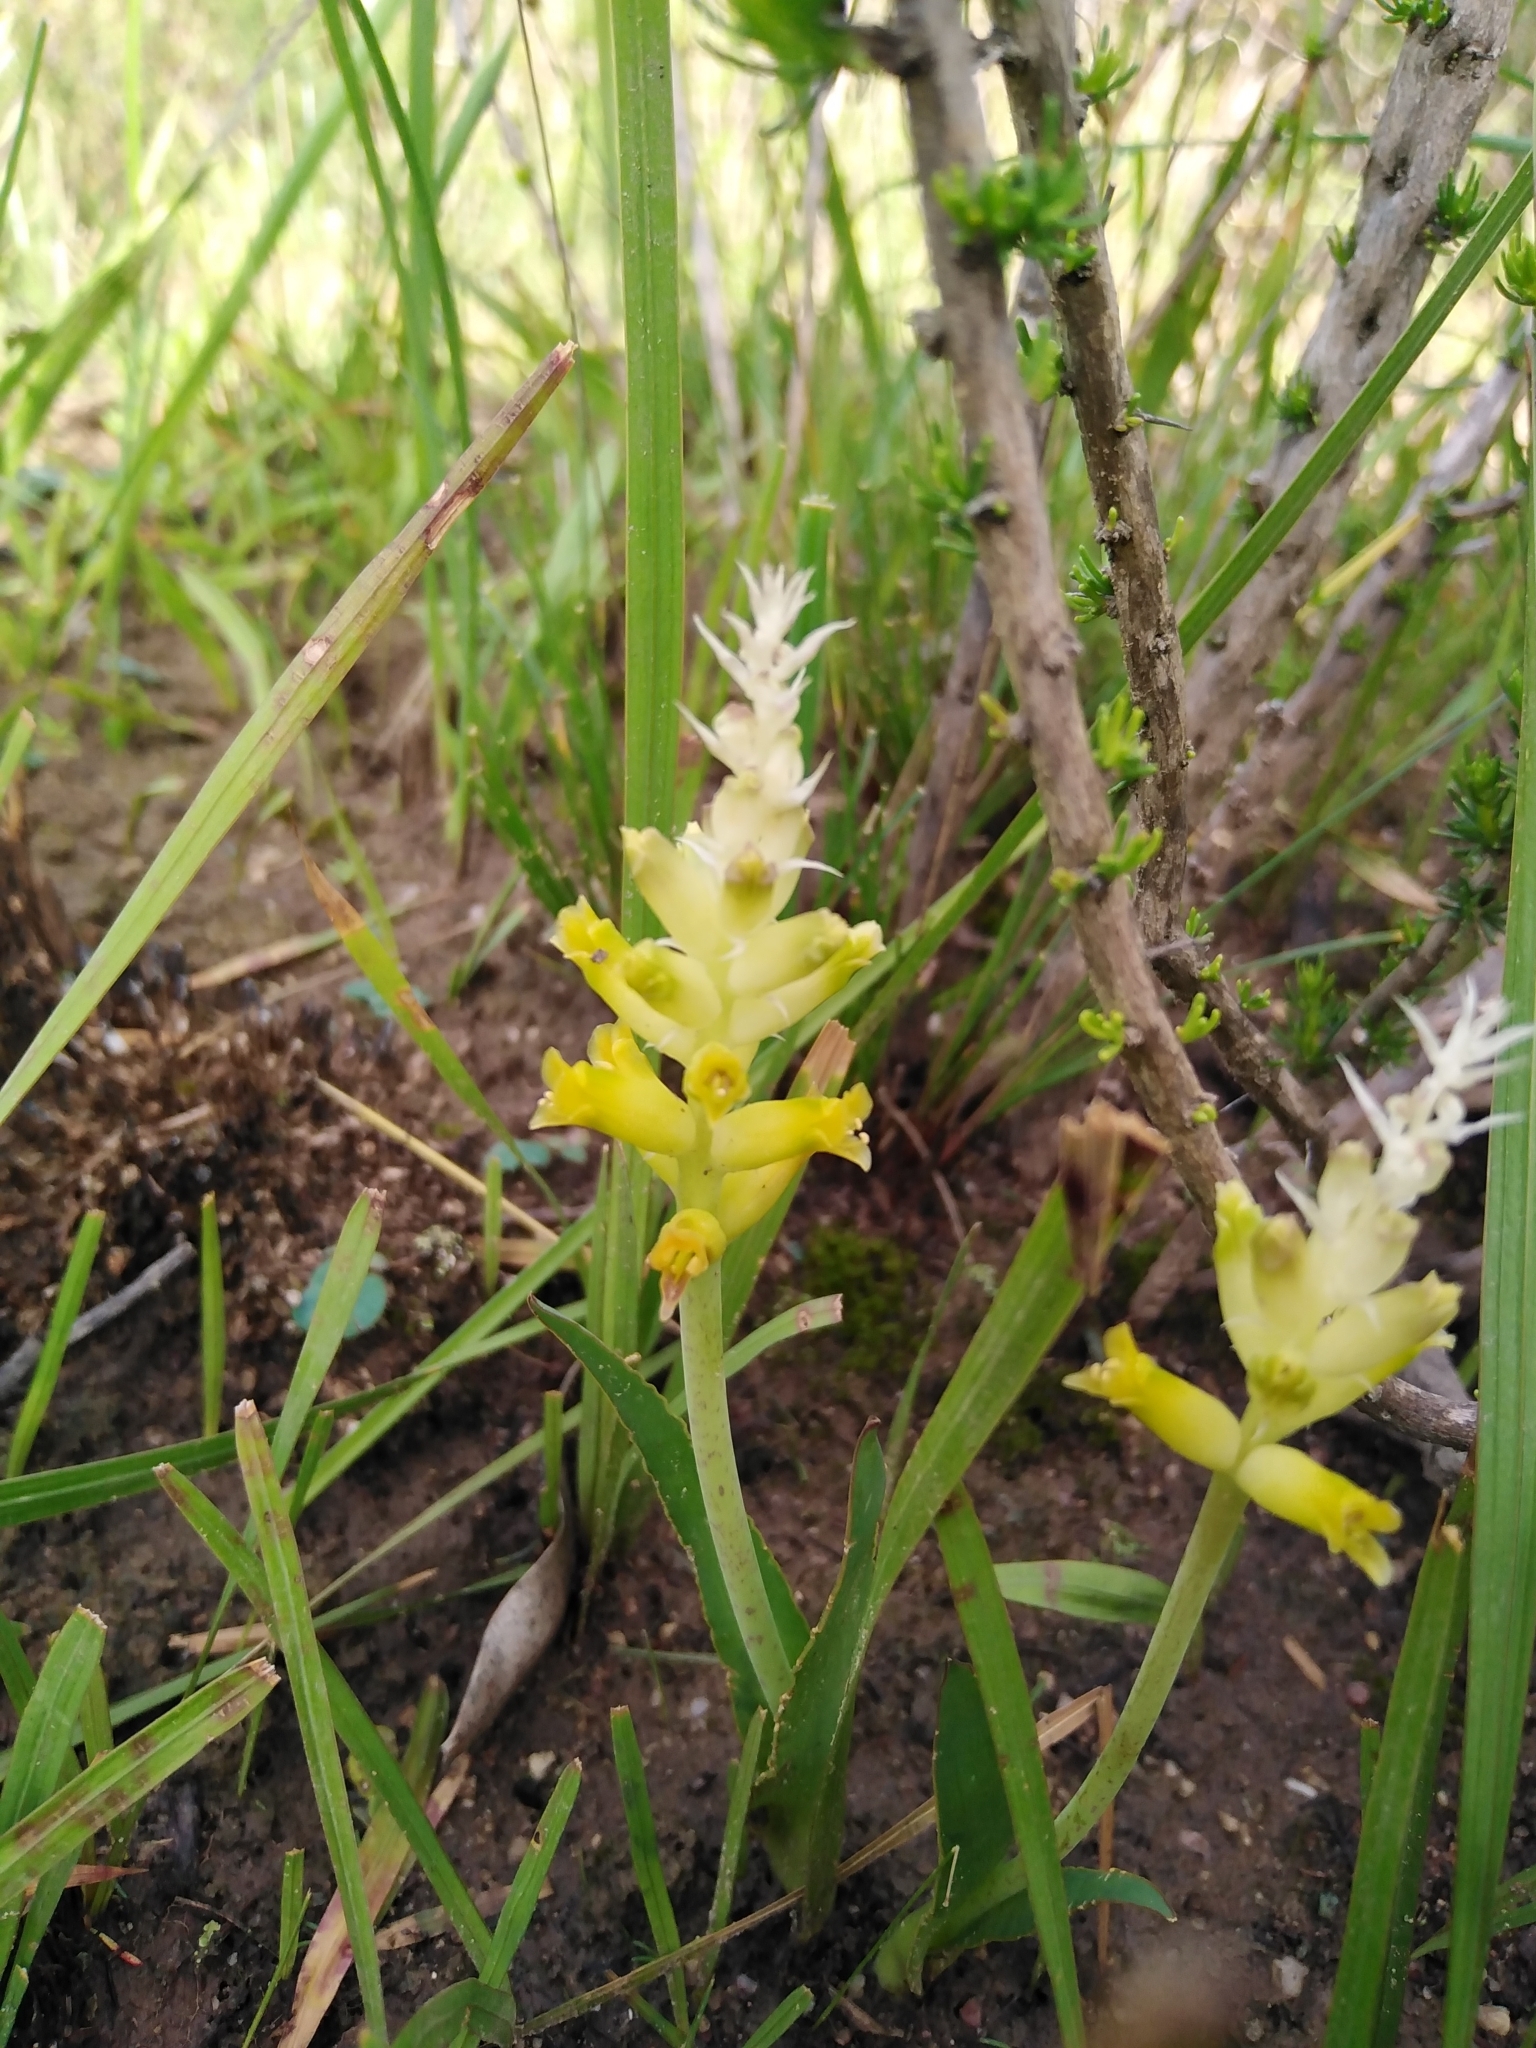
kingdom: Plantae
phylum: Tracheophyta
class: Liliopsida
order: Asparagales
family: Asparagaceae
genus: Lachenalia
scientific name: Lachenalia orchioides
